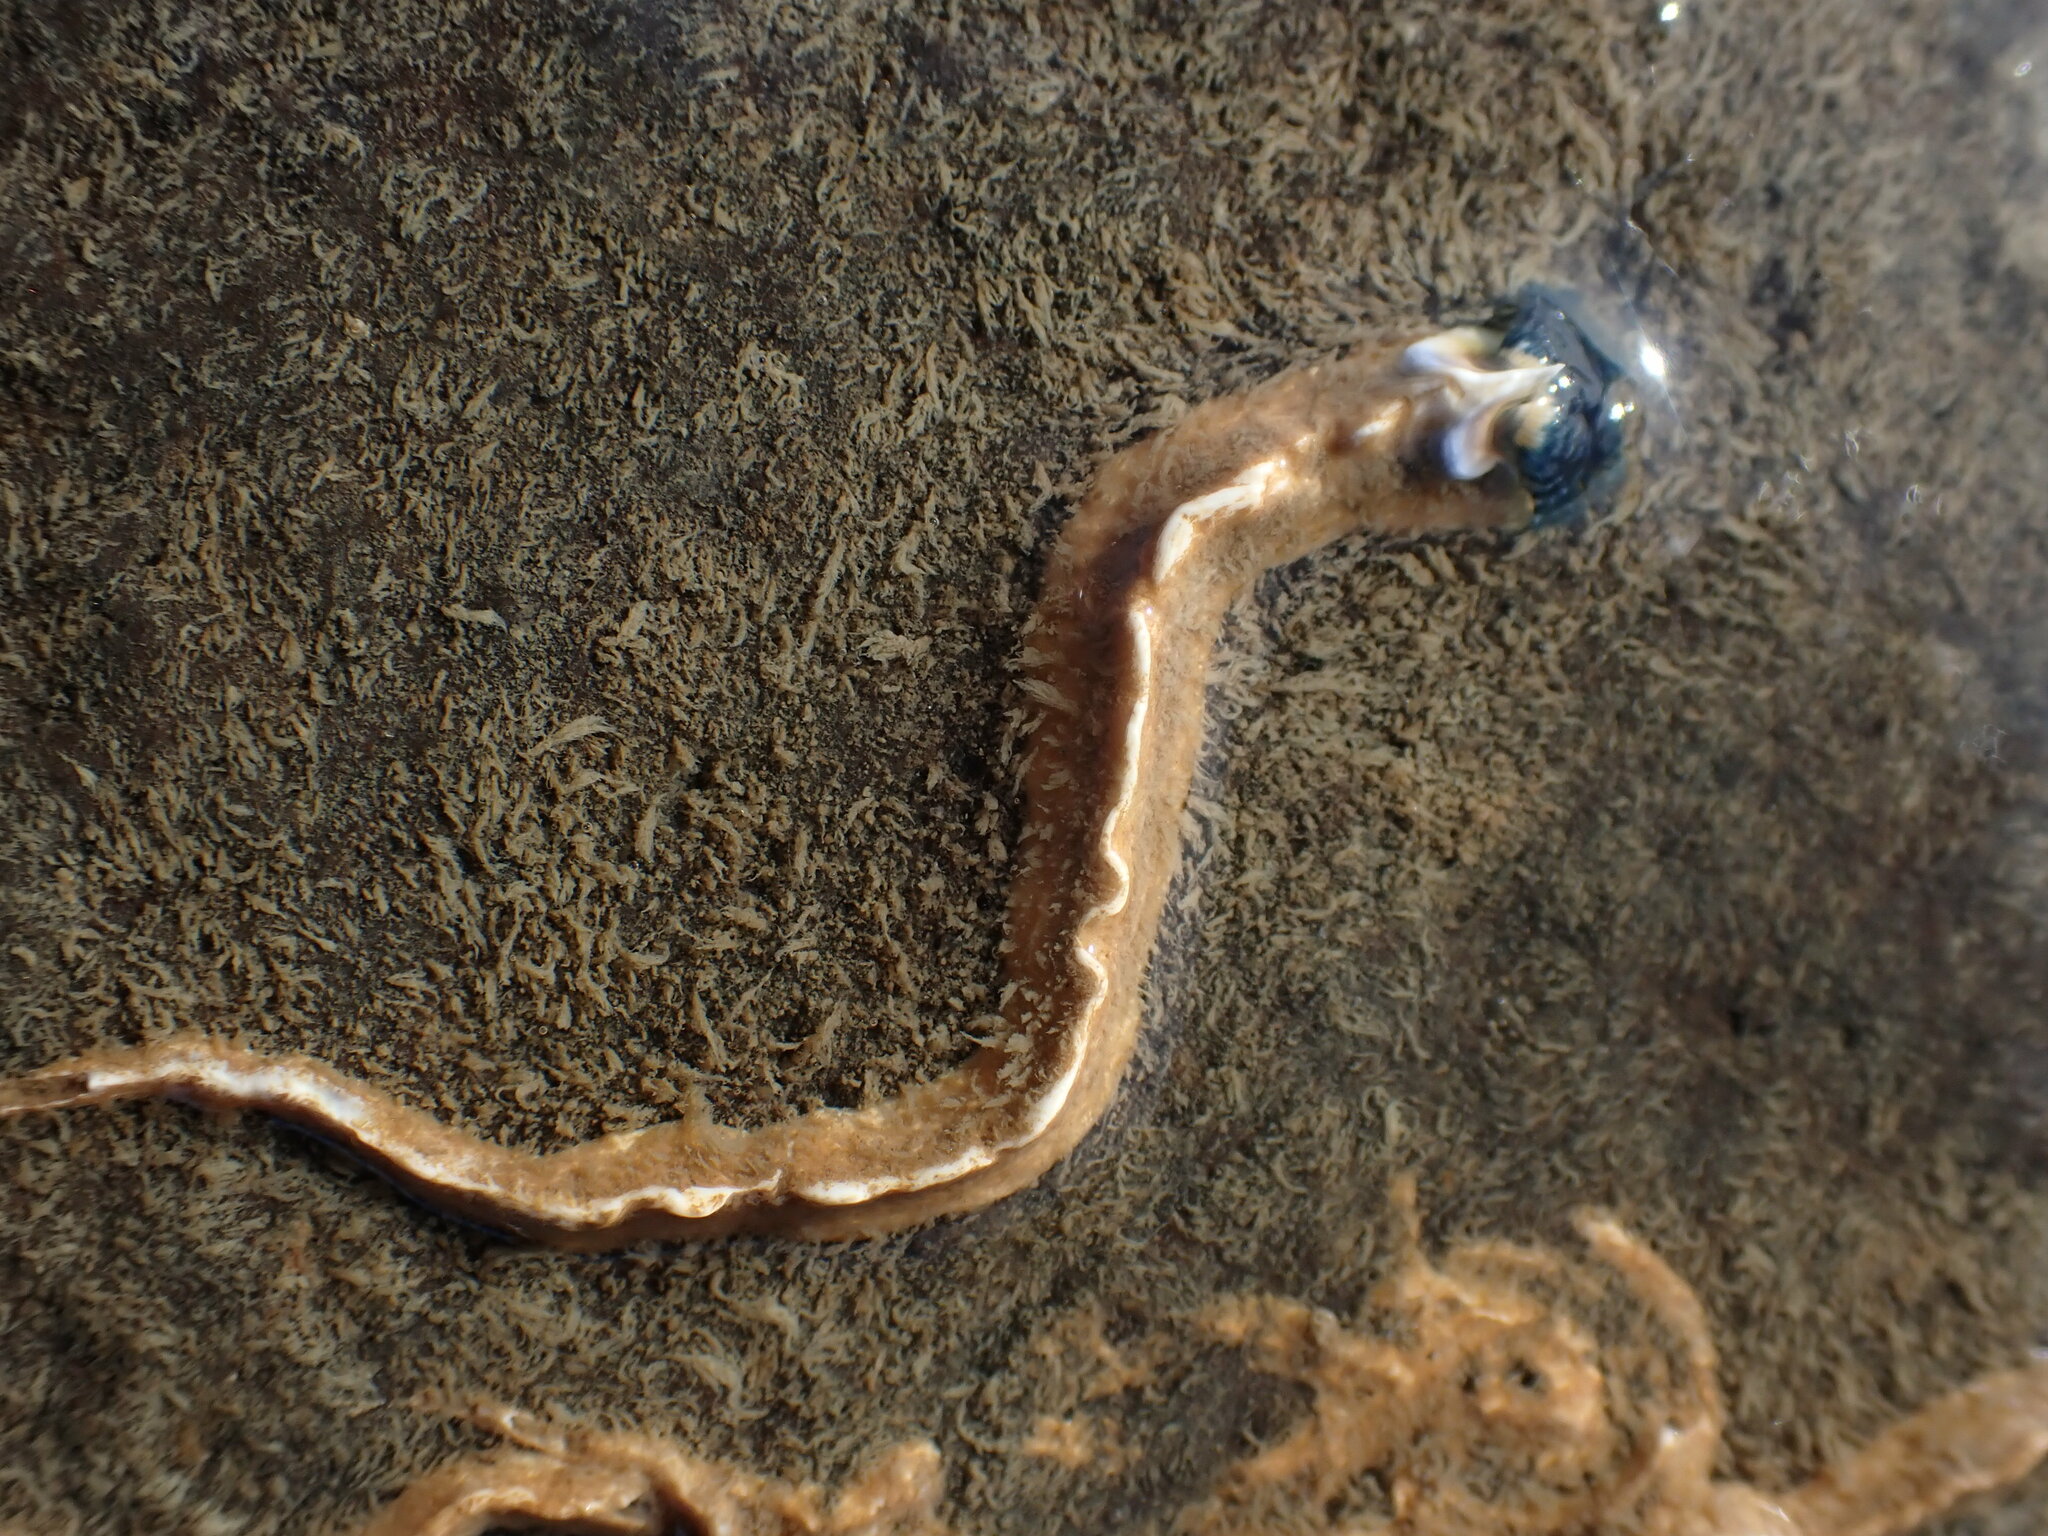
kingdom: Animalia
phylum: Annelida
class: Polychaeta
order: Sabellida
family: Serpulidae
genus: Spirobranchus
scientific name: Spirobranchus cariniferus
